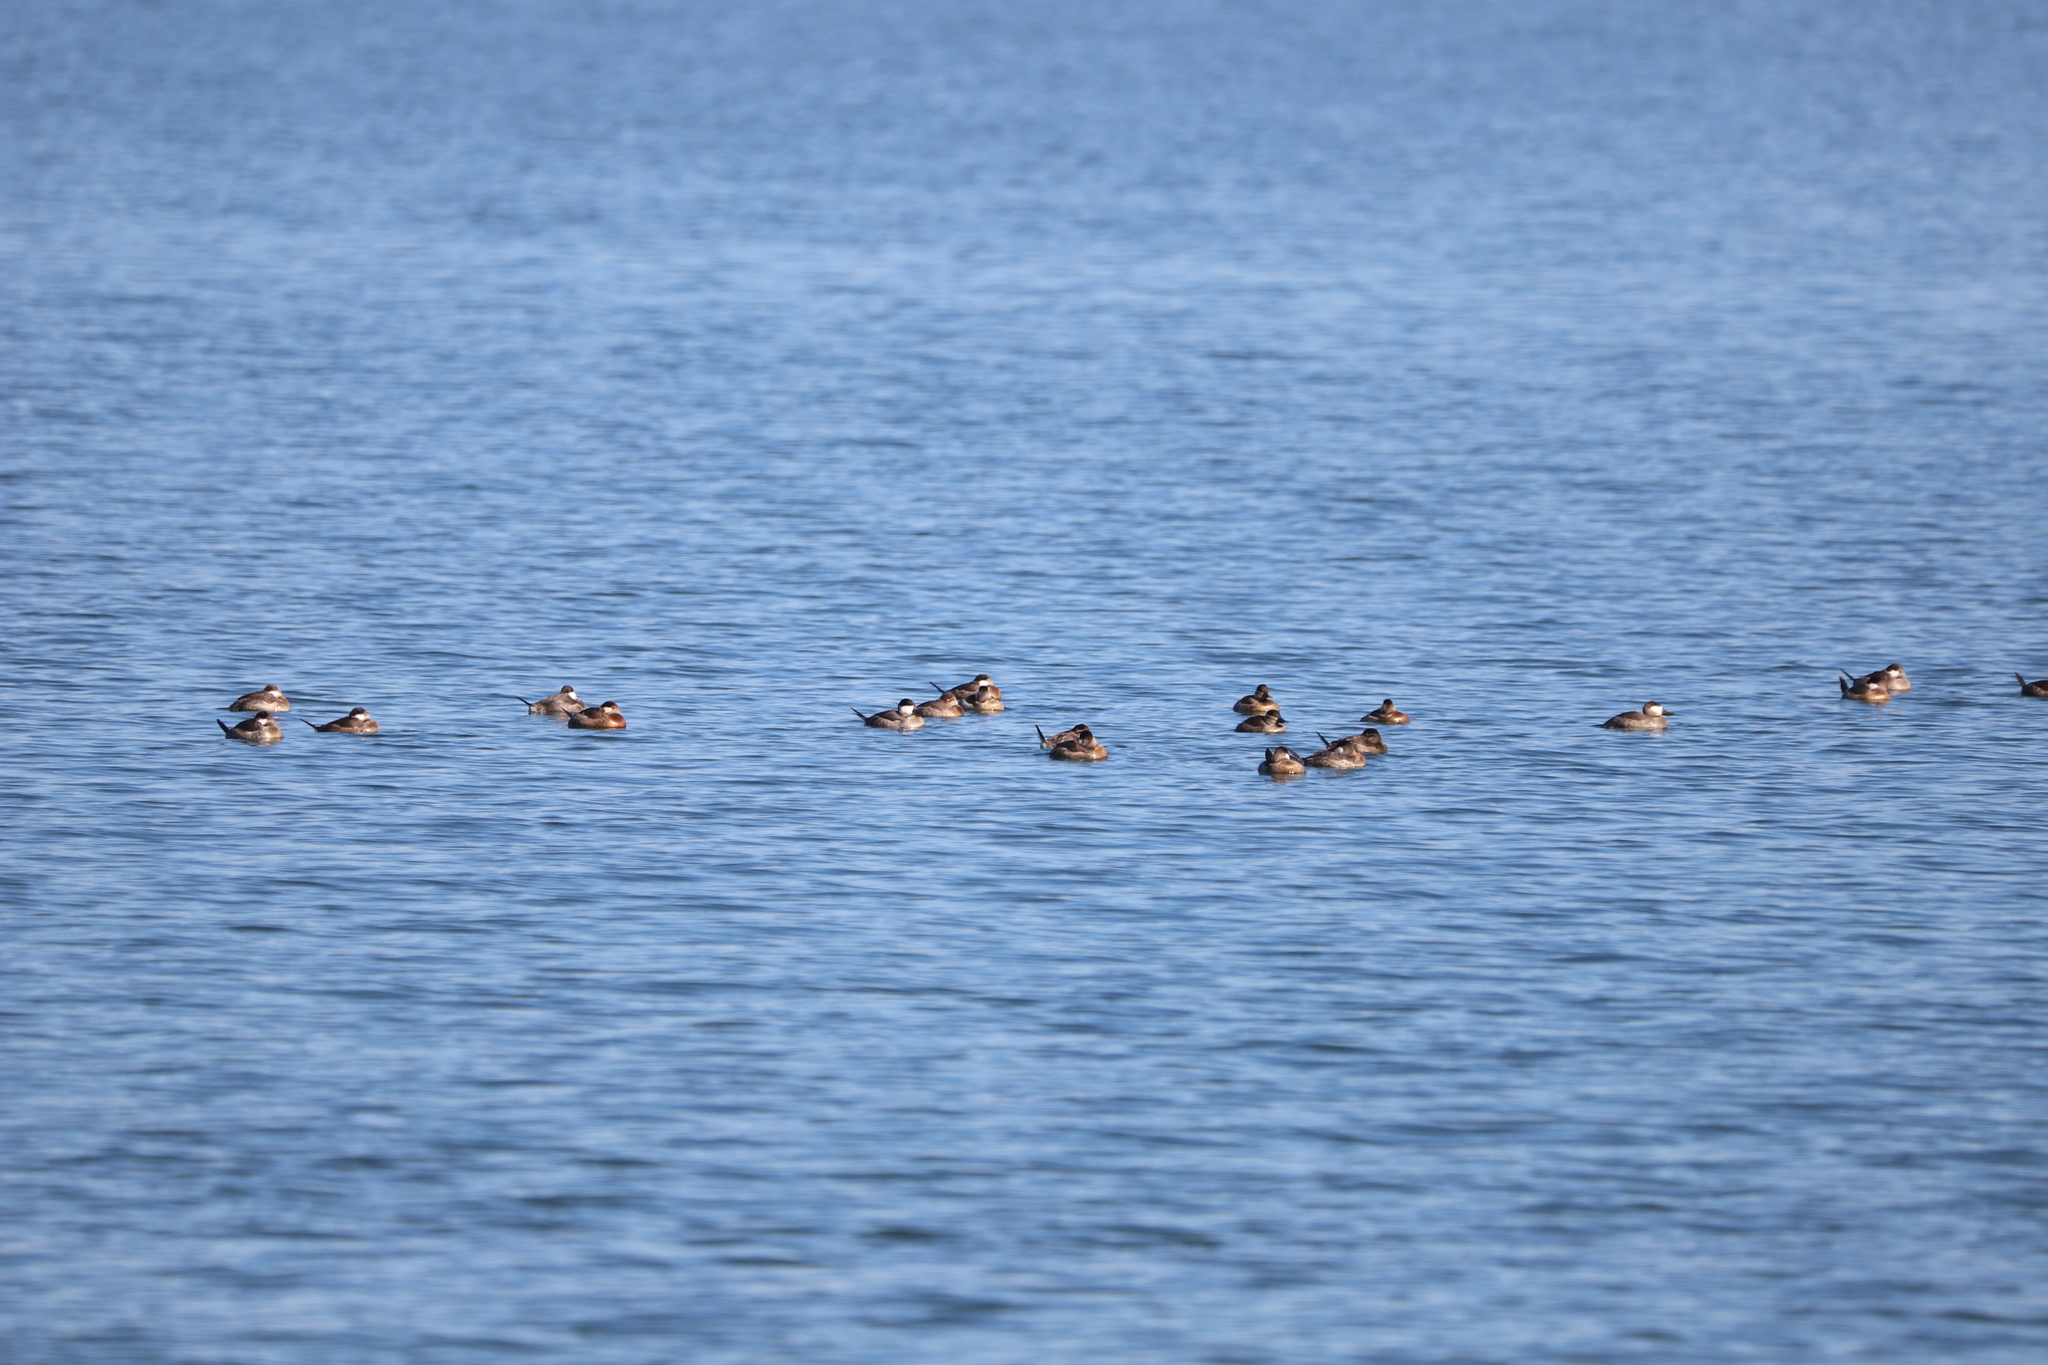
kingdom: Animalia
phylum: Chordata
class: Aves
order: Anseriformes
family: Anatidae
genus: Oxyura
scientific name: Oxyura jamaicensis
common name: Ruddy duck
